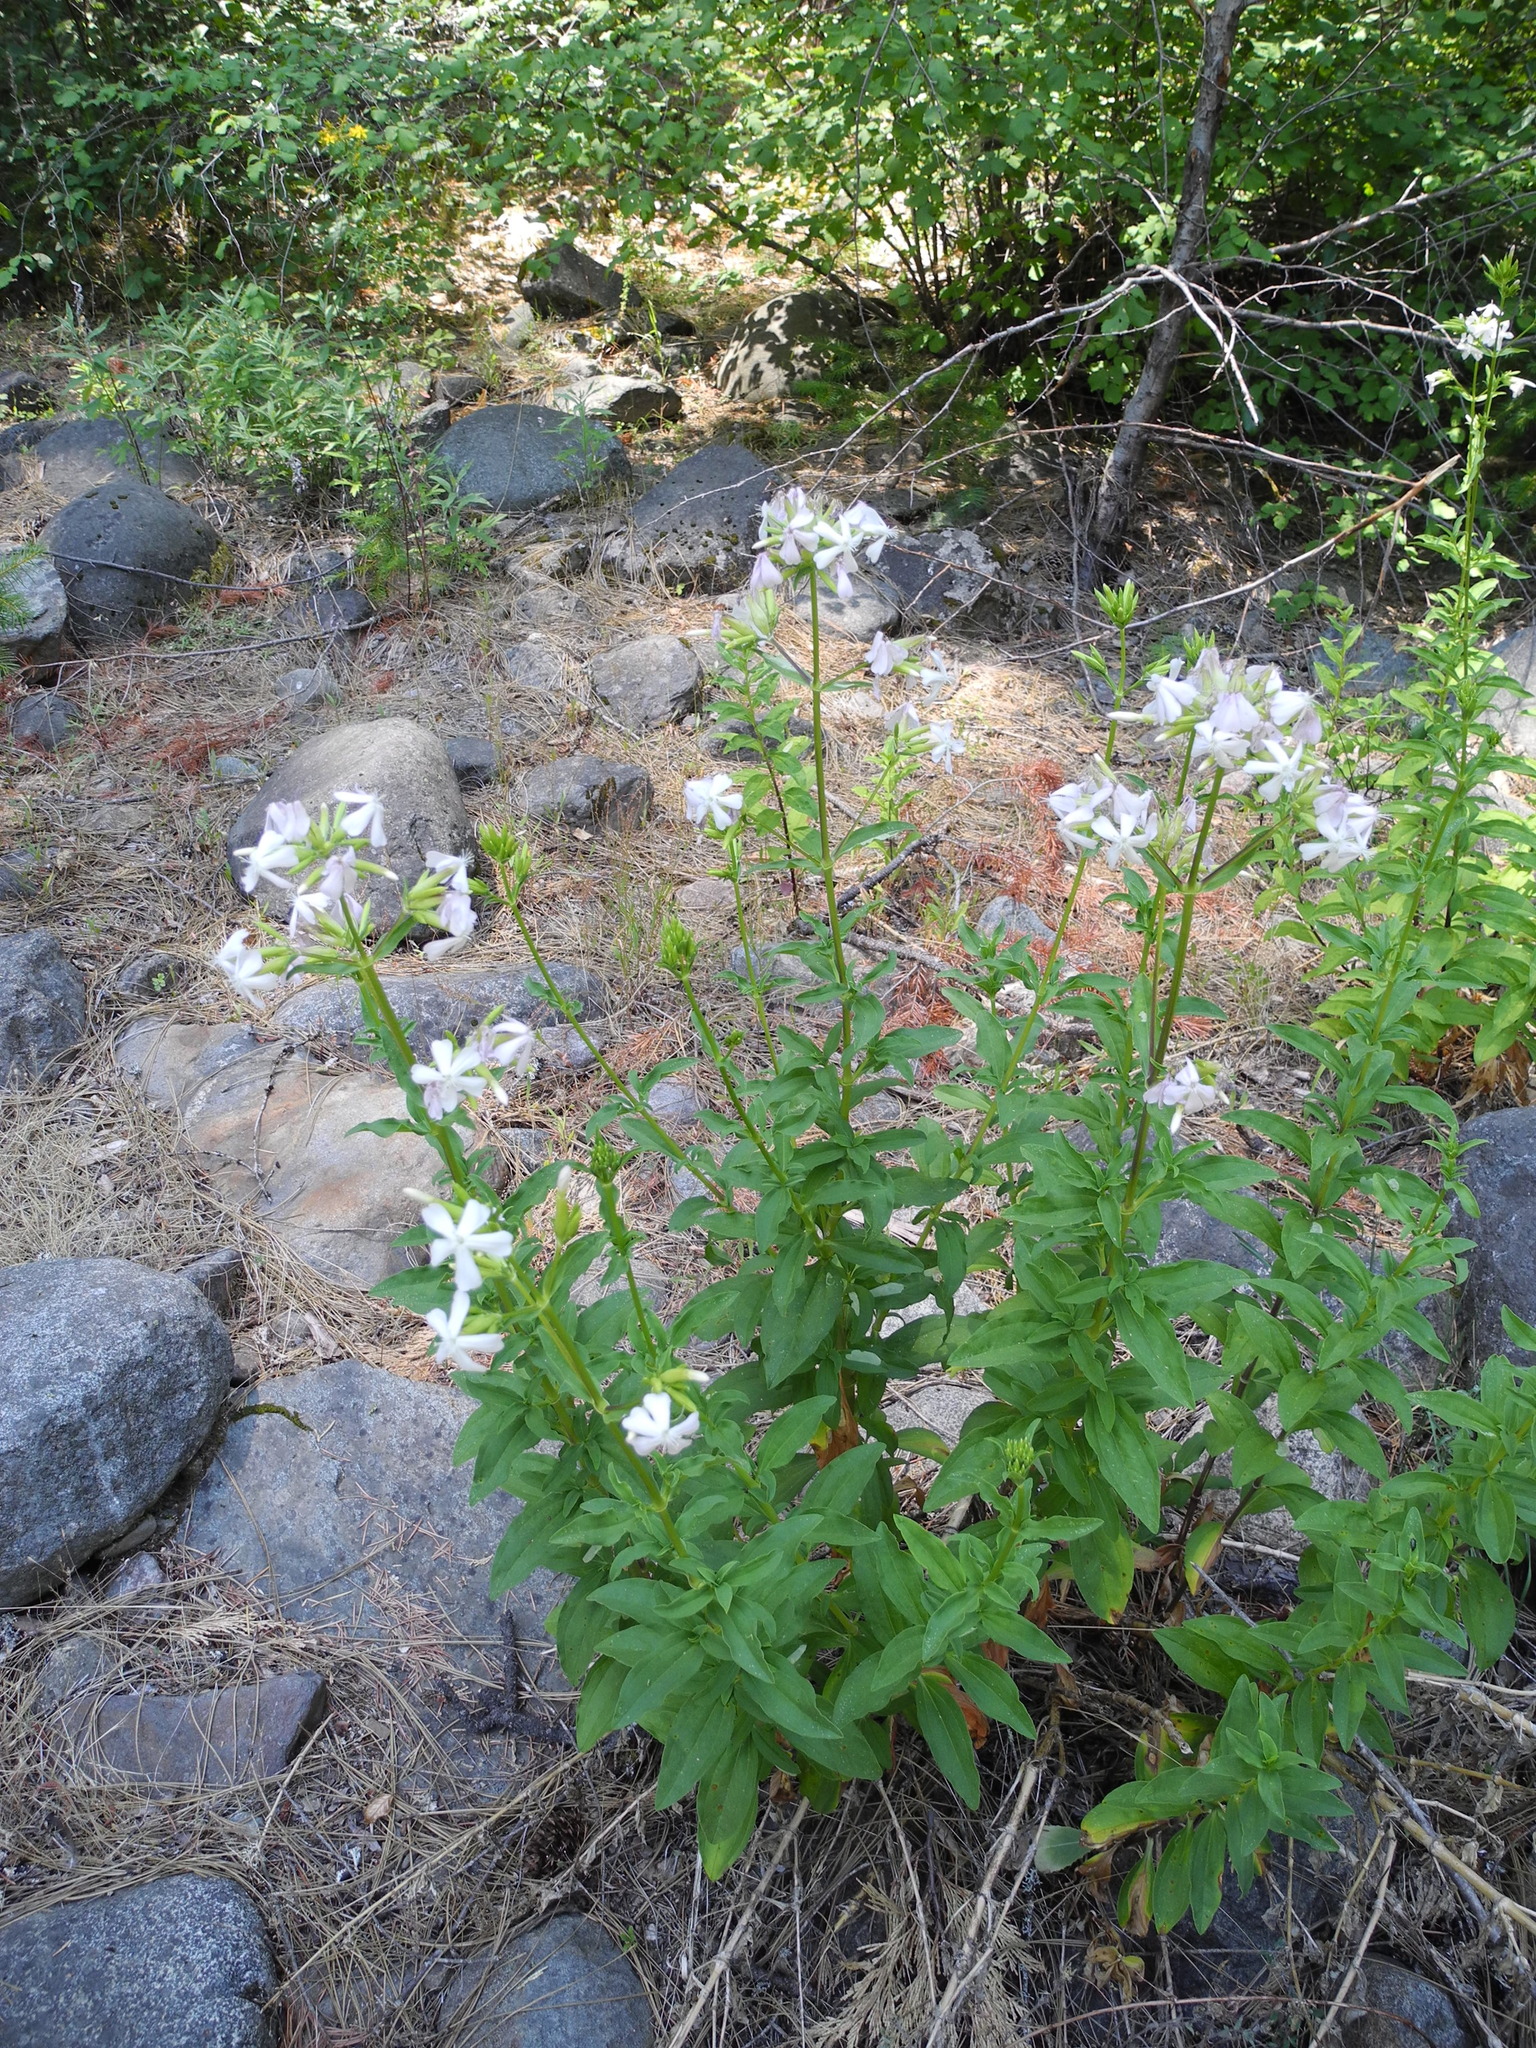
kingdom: Plantae
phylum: Tracheophyta
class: Magnoliopsida
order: Caryophyllales
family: Caryophyllaceae
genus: Saponaria
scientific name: Saponaria officinalis
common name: Soapwort
